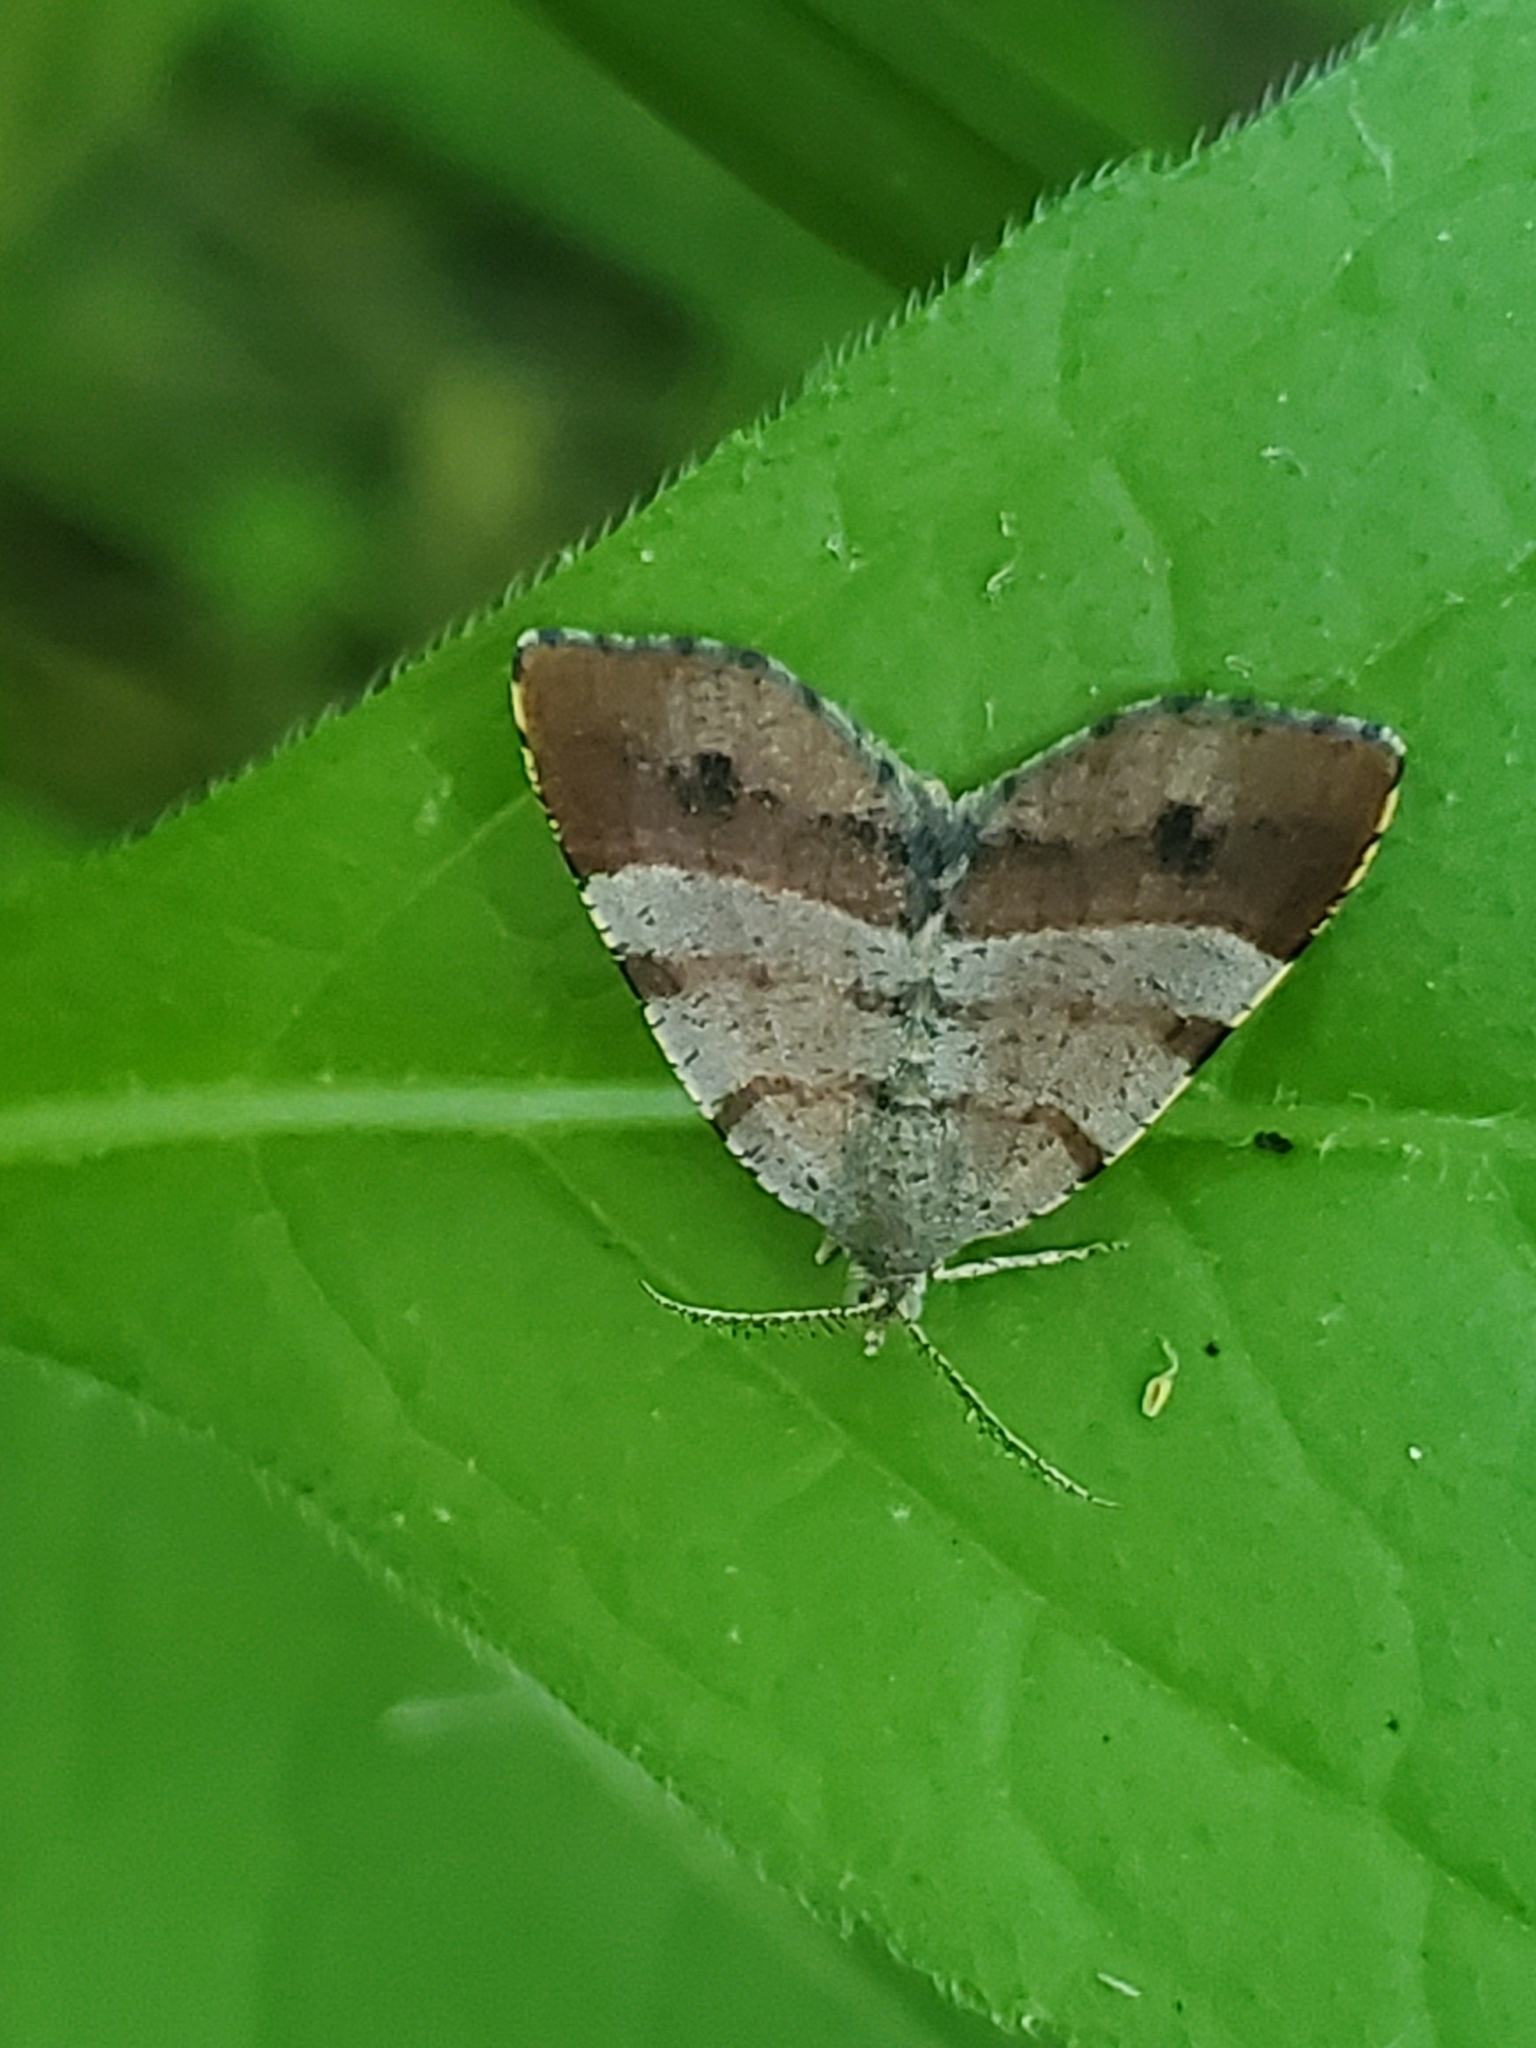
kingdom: Animalia
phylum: Arthropoda
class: Insecta
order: Lepidoptera
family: Geometridae
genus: Mellilla
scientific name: Mellilla xanthometata
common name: Orange wing moth
